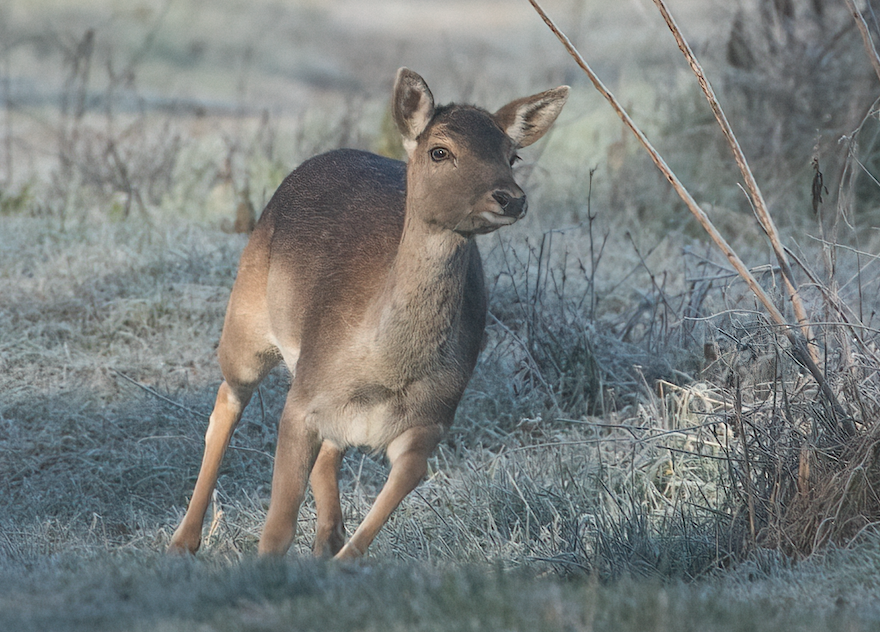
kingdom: Animalia
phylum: Chordata
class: Mammalia
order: Artiodactyla
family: Cervidae
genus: Dama
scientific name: Dama dama
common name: Fallow deer
